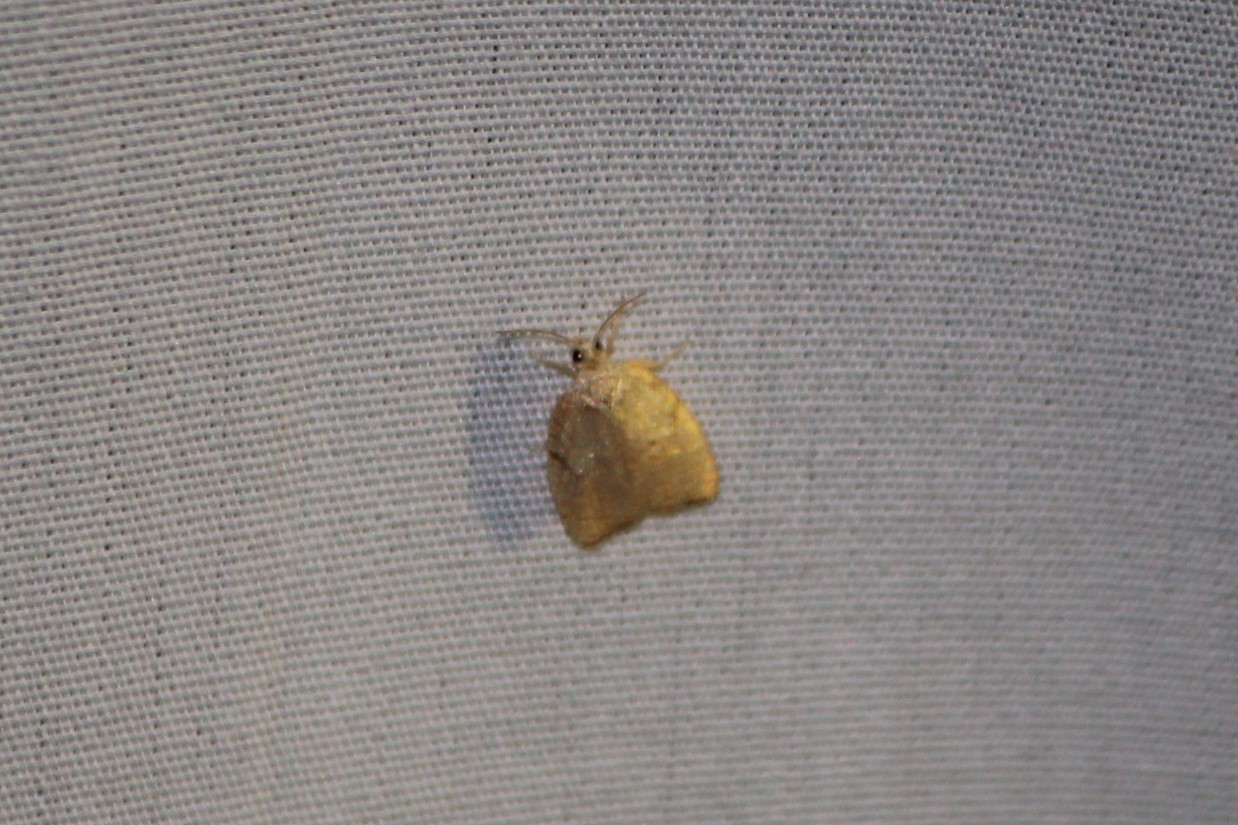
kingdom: Animalia
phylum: Arthropoda
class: Insecta
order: Lepidoptera
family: Tortricidae
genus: Acleris
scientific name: Acleris forsskaleana
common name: Maple button
